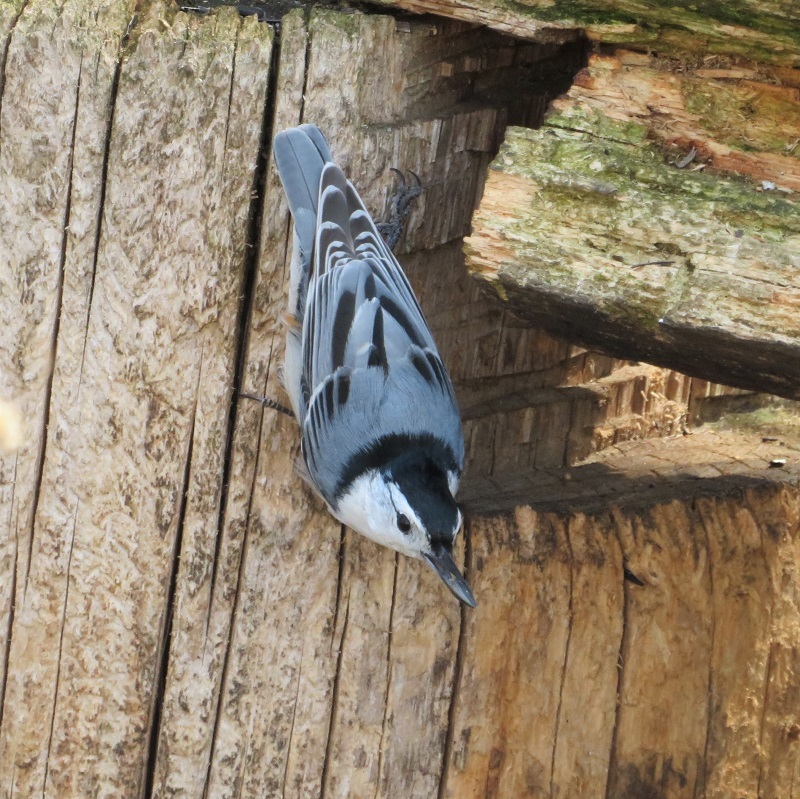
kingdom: Animalia
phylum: Chordata
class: Aves
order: Passeriformes
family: Sittidae
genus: Sitta
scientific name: Sitta carolinensis
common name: White-breasted nuthatch
